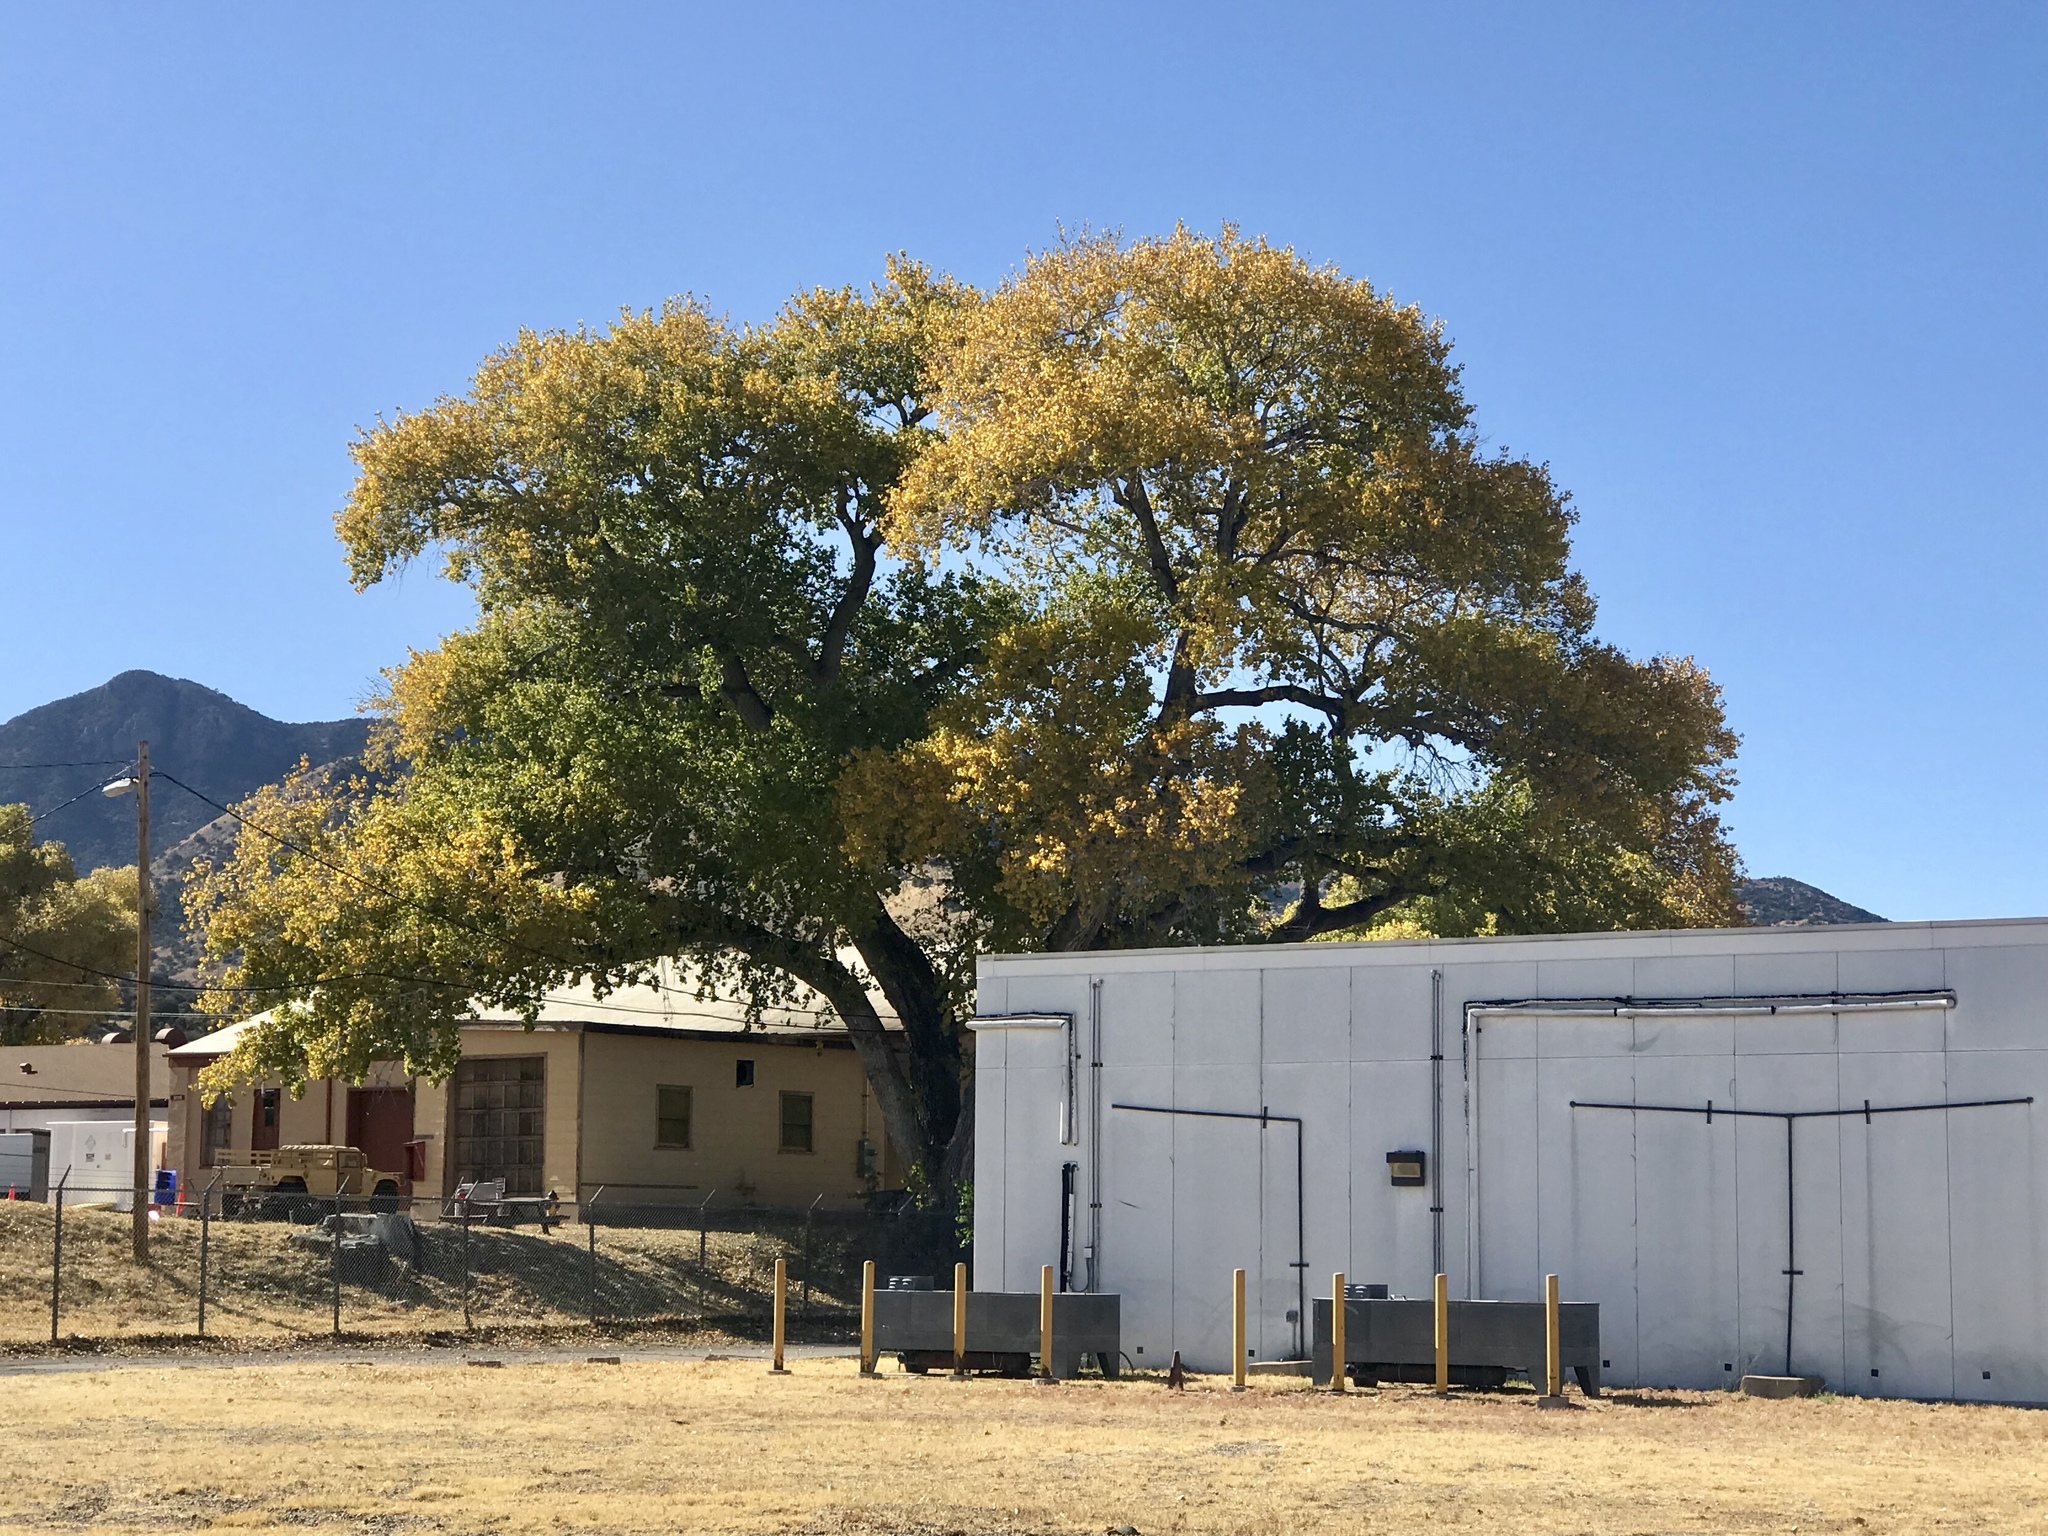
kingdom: Plantae
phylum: Tracheophyta
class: Magnoliopsida
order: Malpighiales
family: Salicaceae
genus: Populus
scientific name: Populus fremontii
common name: Fremont's cottonwood
